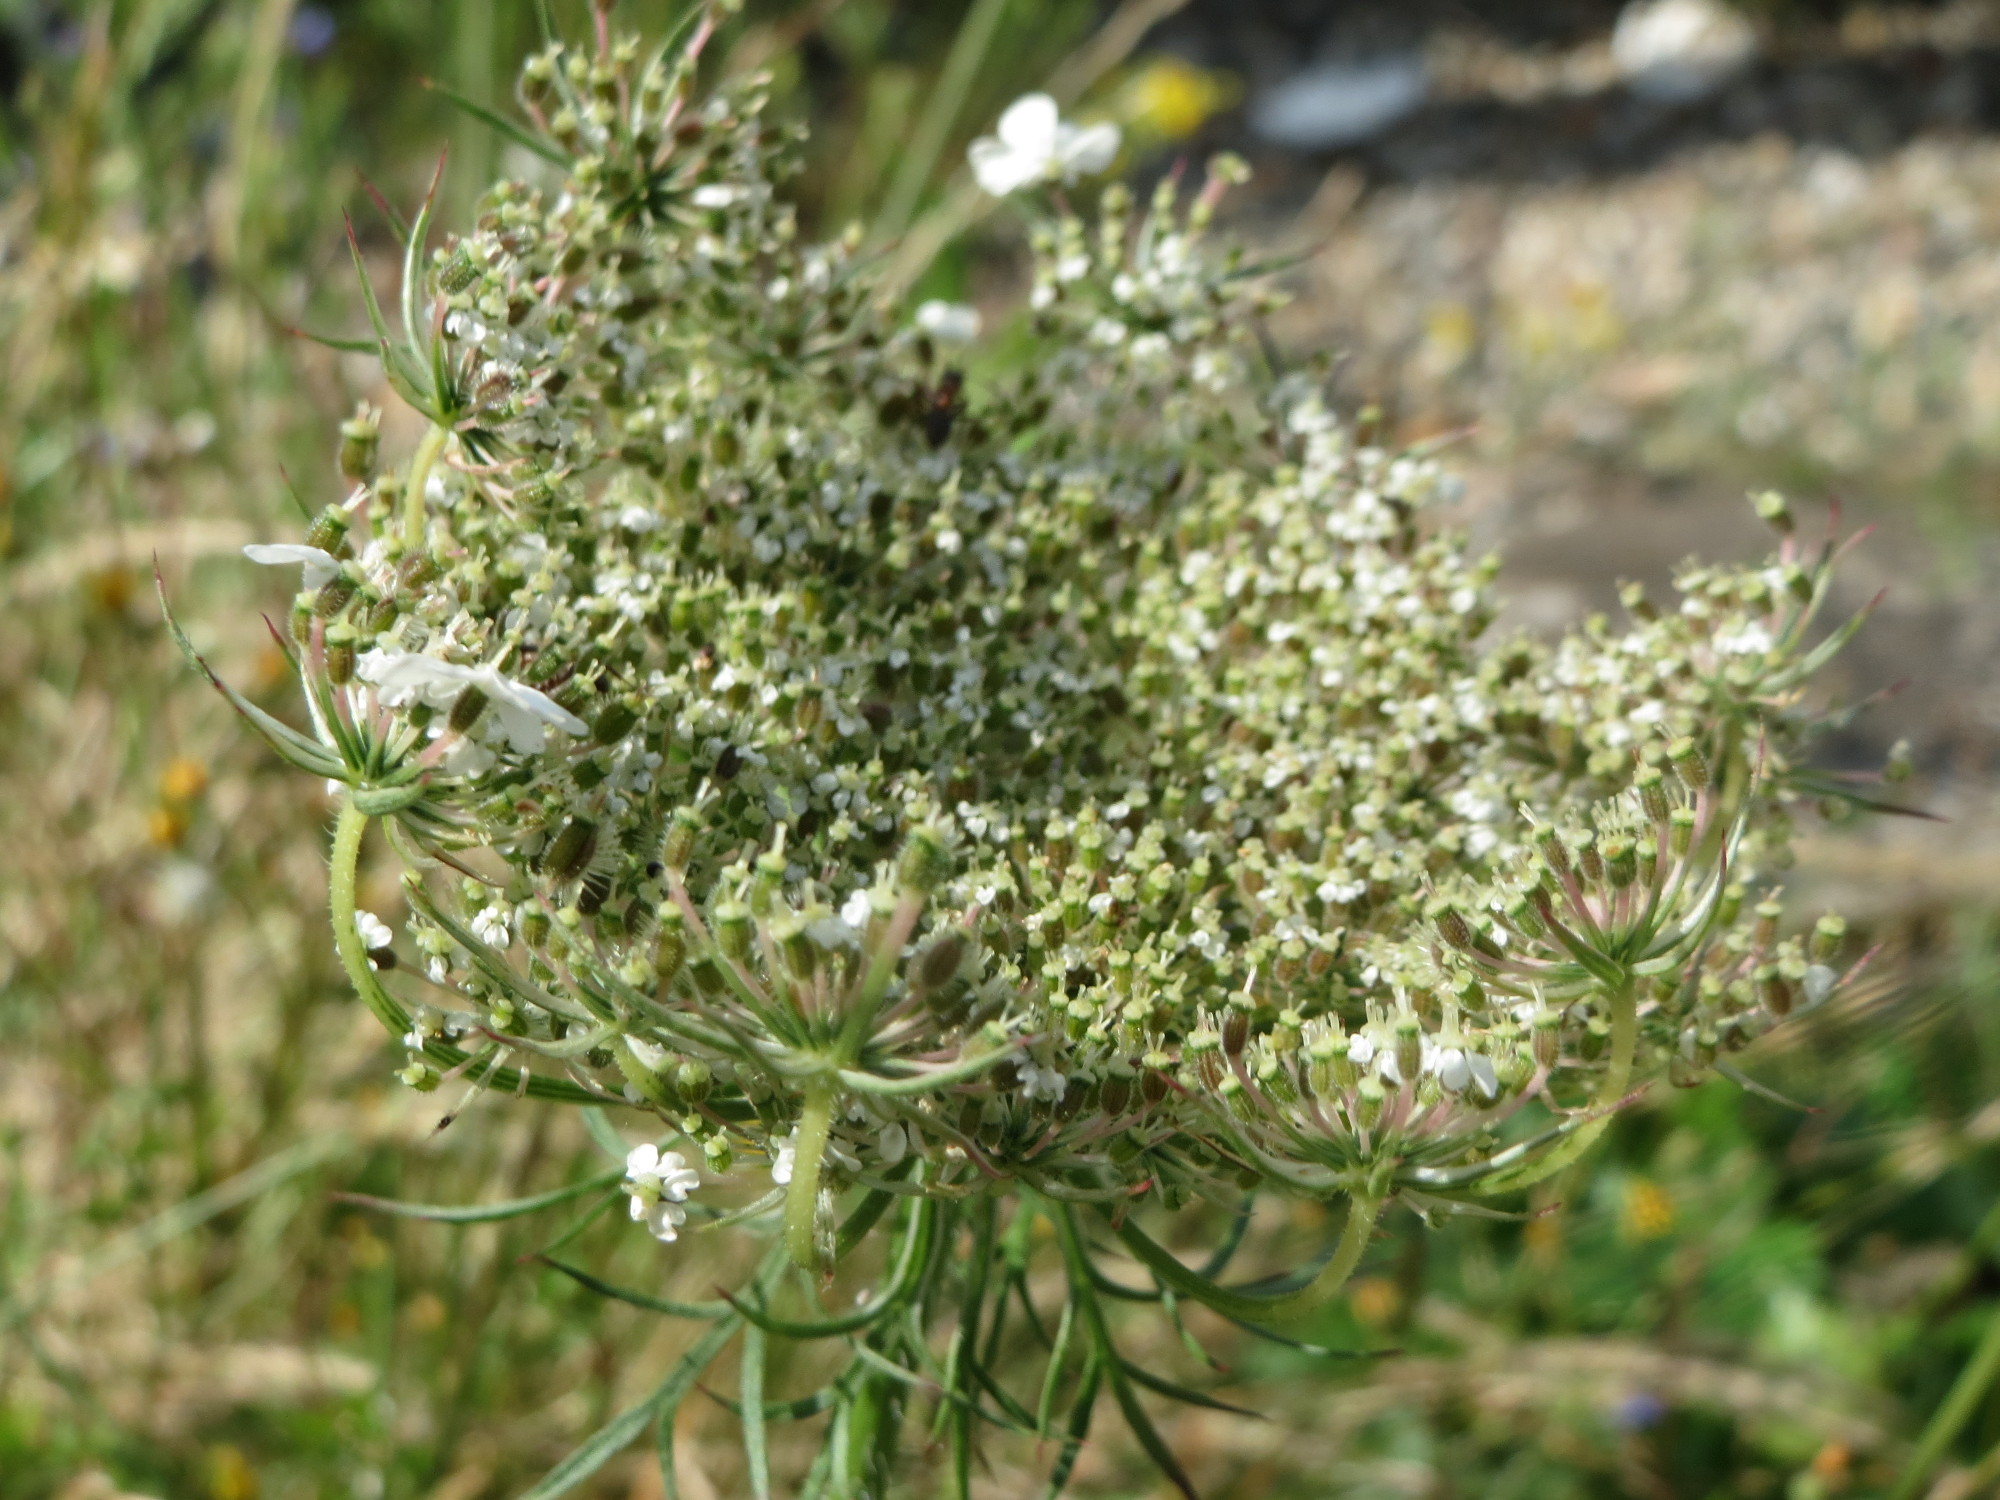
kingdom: Plantae
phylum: Tracheophyta
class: Magnoliopsida
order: Apiales
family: Apiaceae
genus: Daucus
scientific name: Daucus carota
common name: Wild carrot
